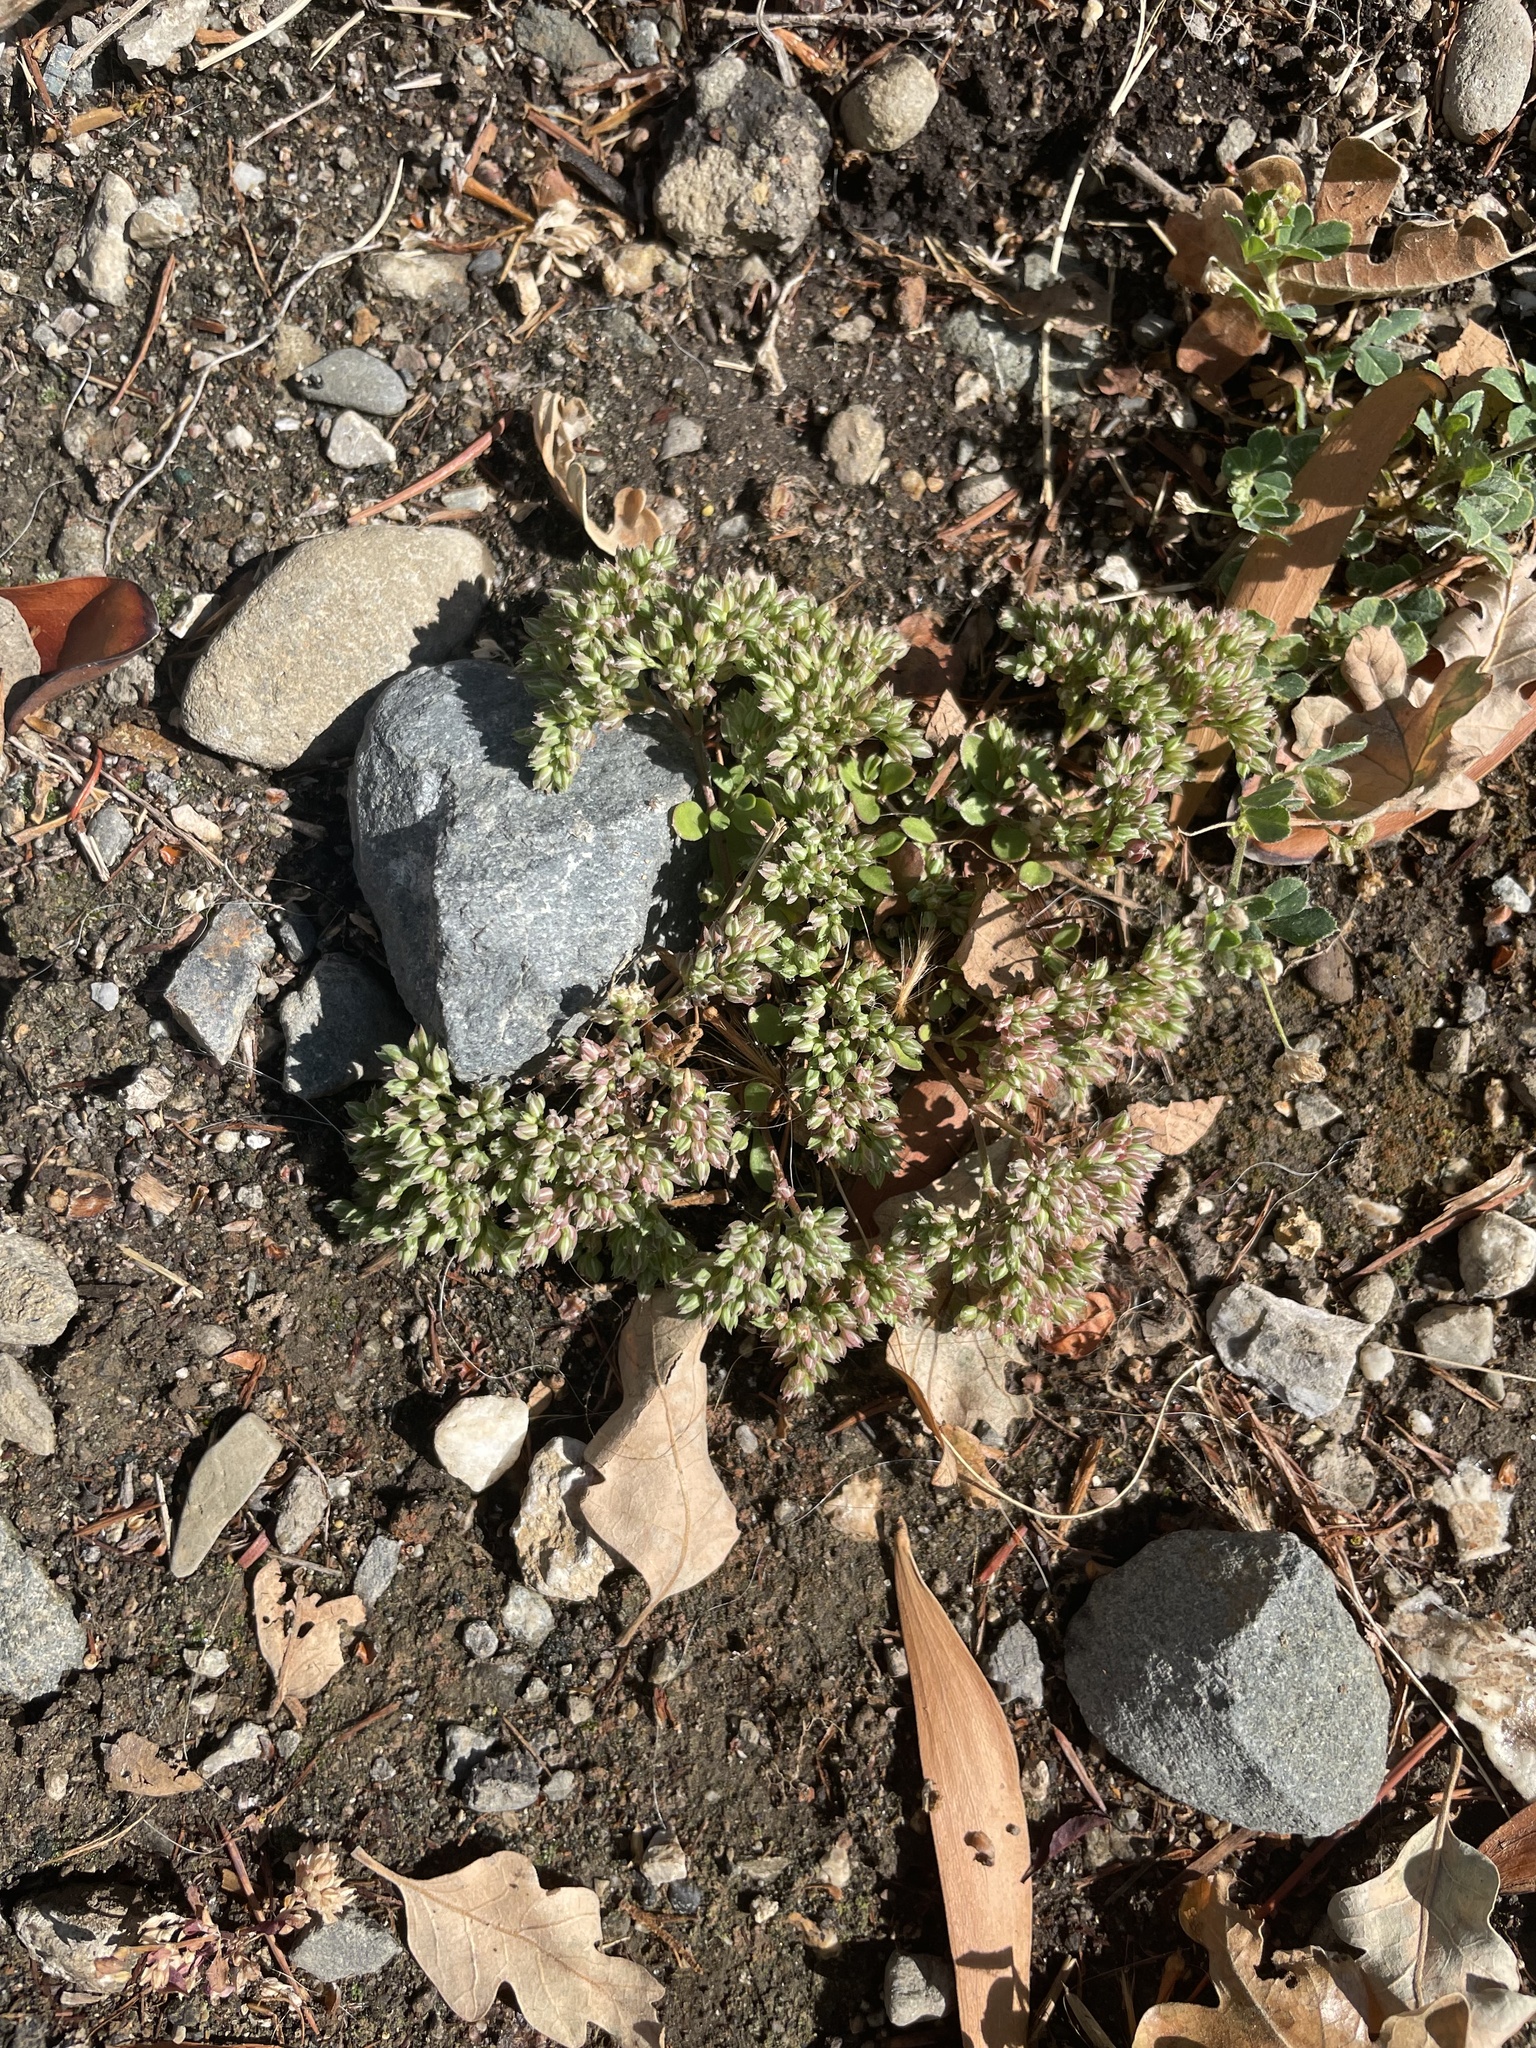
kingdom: Plantae
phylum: Tracheophyta
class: Magnoliopsida
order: Caryophyllales
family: Caryophyllaceae
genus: Polycarpon
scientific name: Polycarpon tetraphyllum
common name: Four-leaved all-seed
